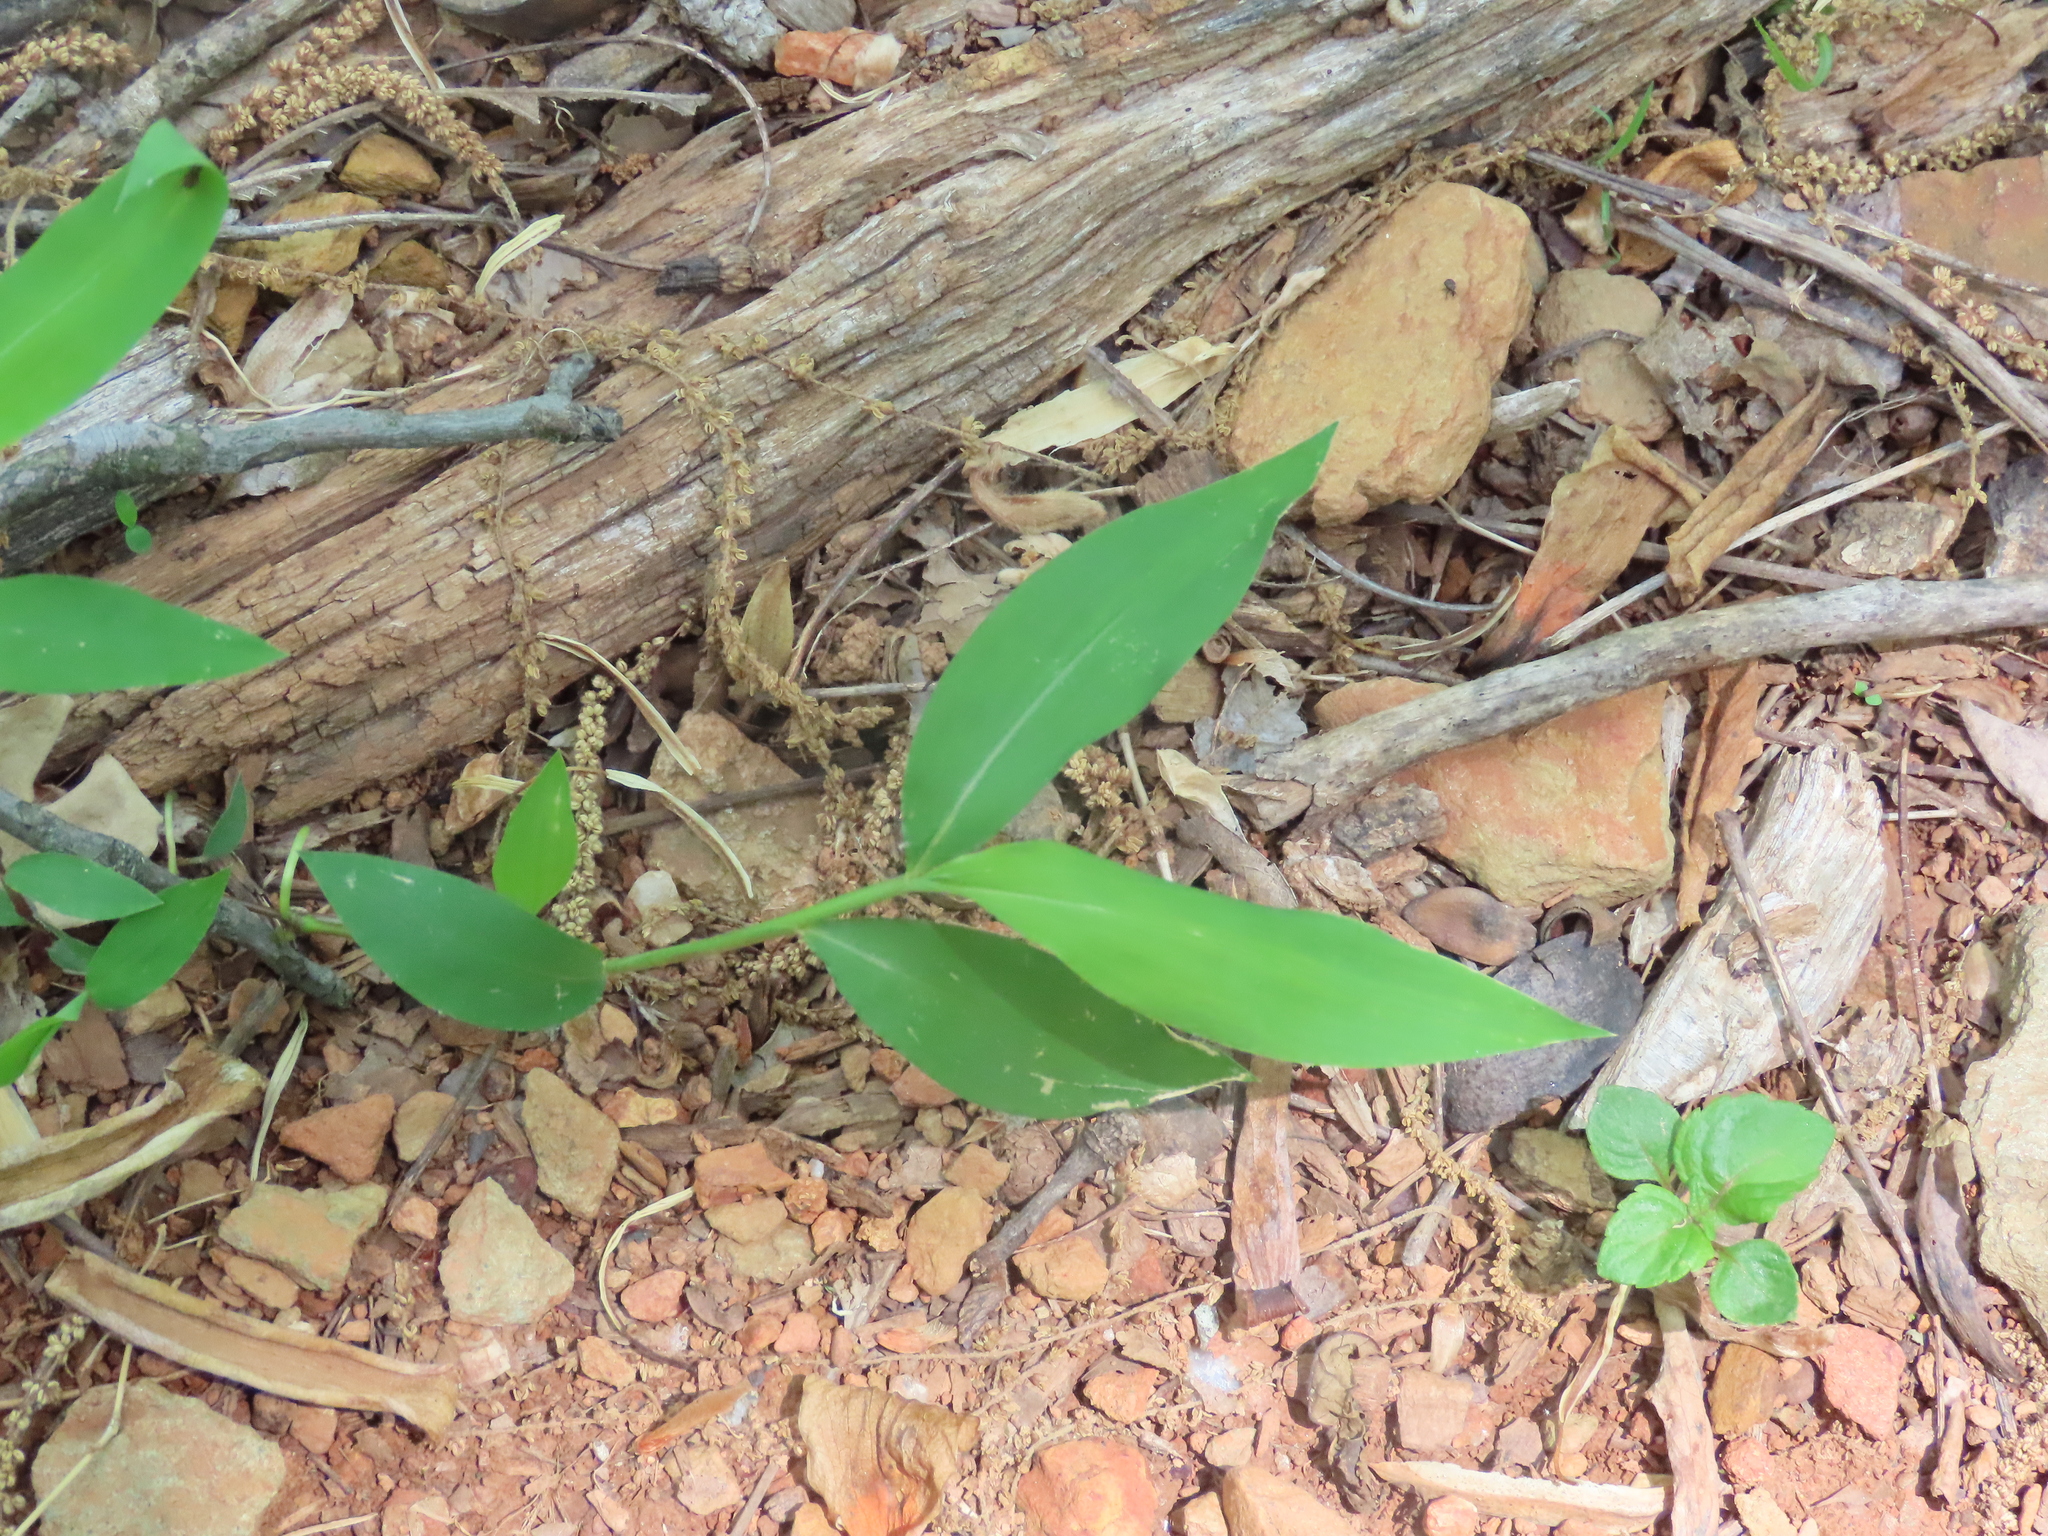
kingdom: Plantae
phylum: Tracheophyta
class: Liliopsida
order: Poales
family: Poaceae
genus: Microstegium
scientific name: Microstegium vimineum
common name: Japanese stiltgrass
